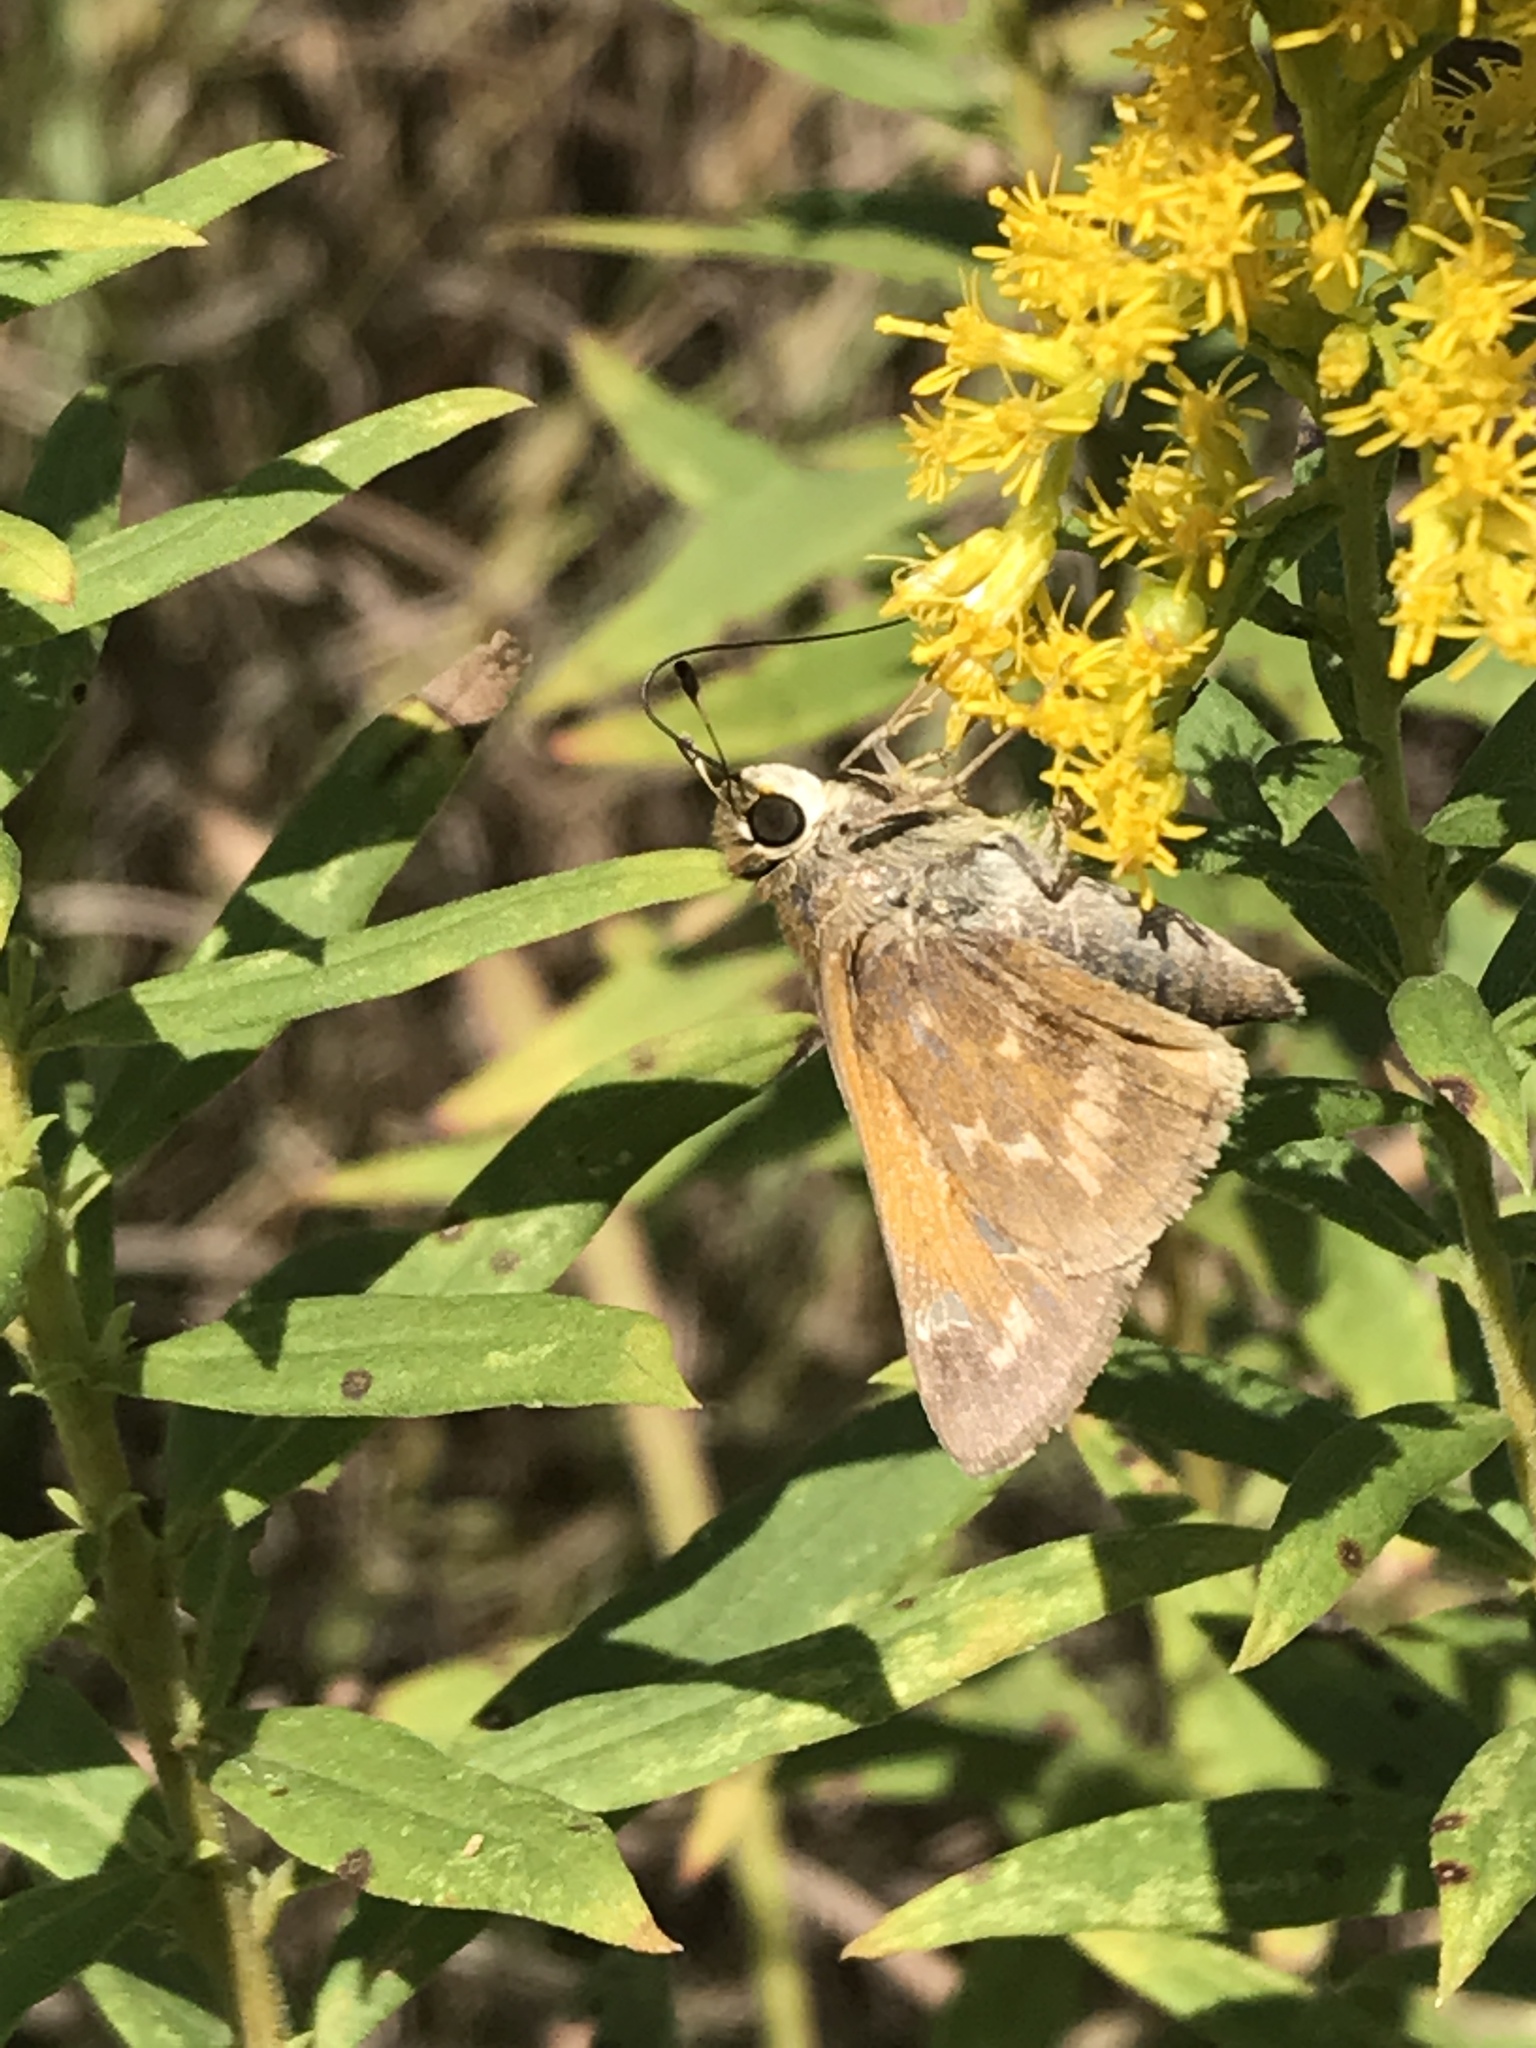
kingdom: Animalia
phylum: Arthropoda
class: Insecta
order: Lepidoptera
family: Hesperiidae
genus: Atalopedes
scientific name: Atalopedes
